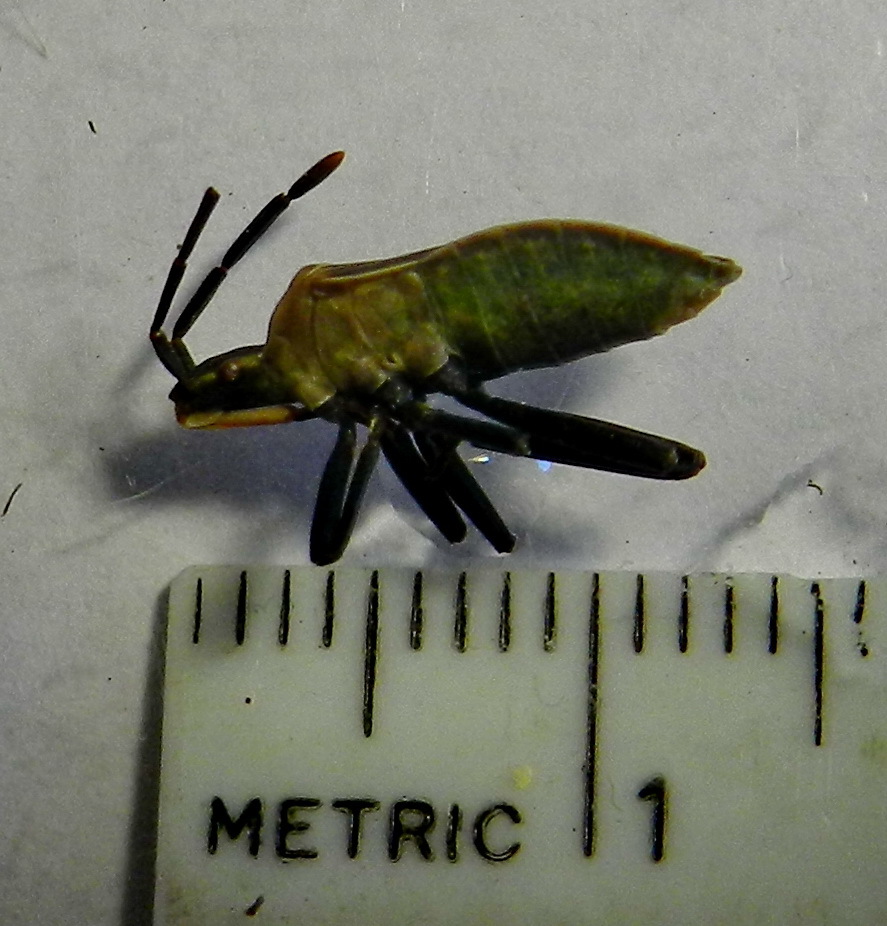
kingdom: Animalia
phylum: Arthropoda
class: Insecta
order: Hemiptera
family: Coreidae
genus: Chelinidea
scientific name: Chelinidea vittiger
